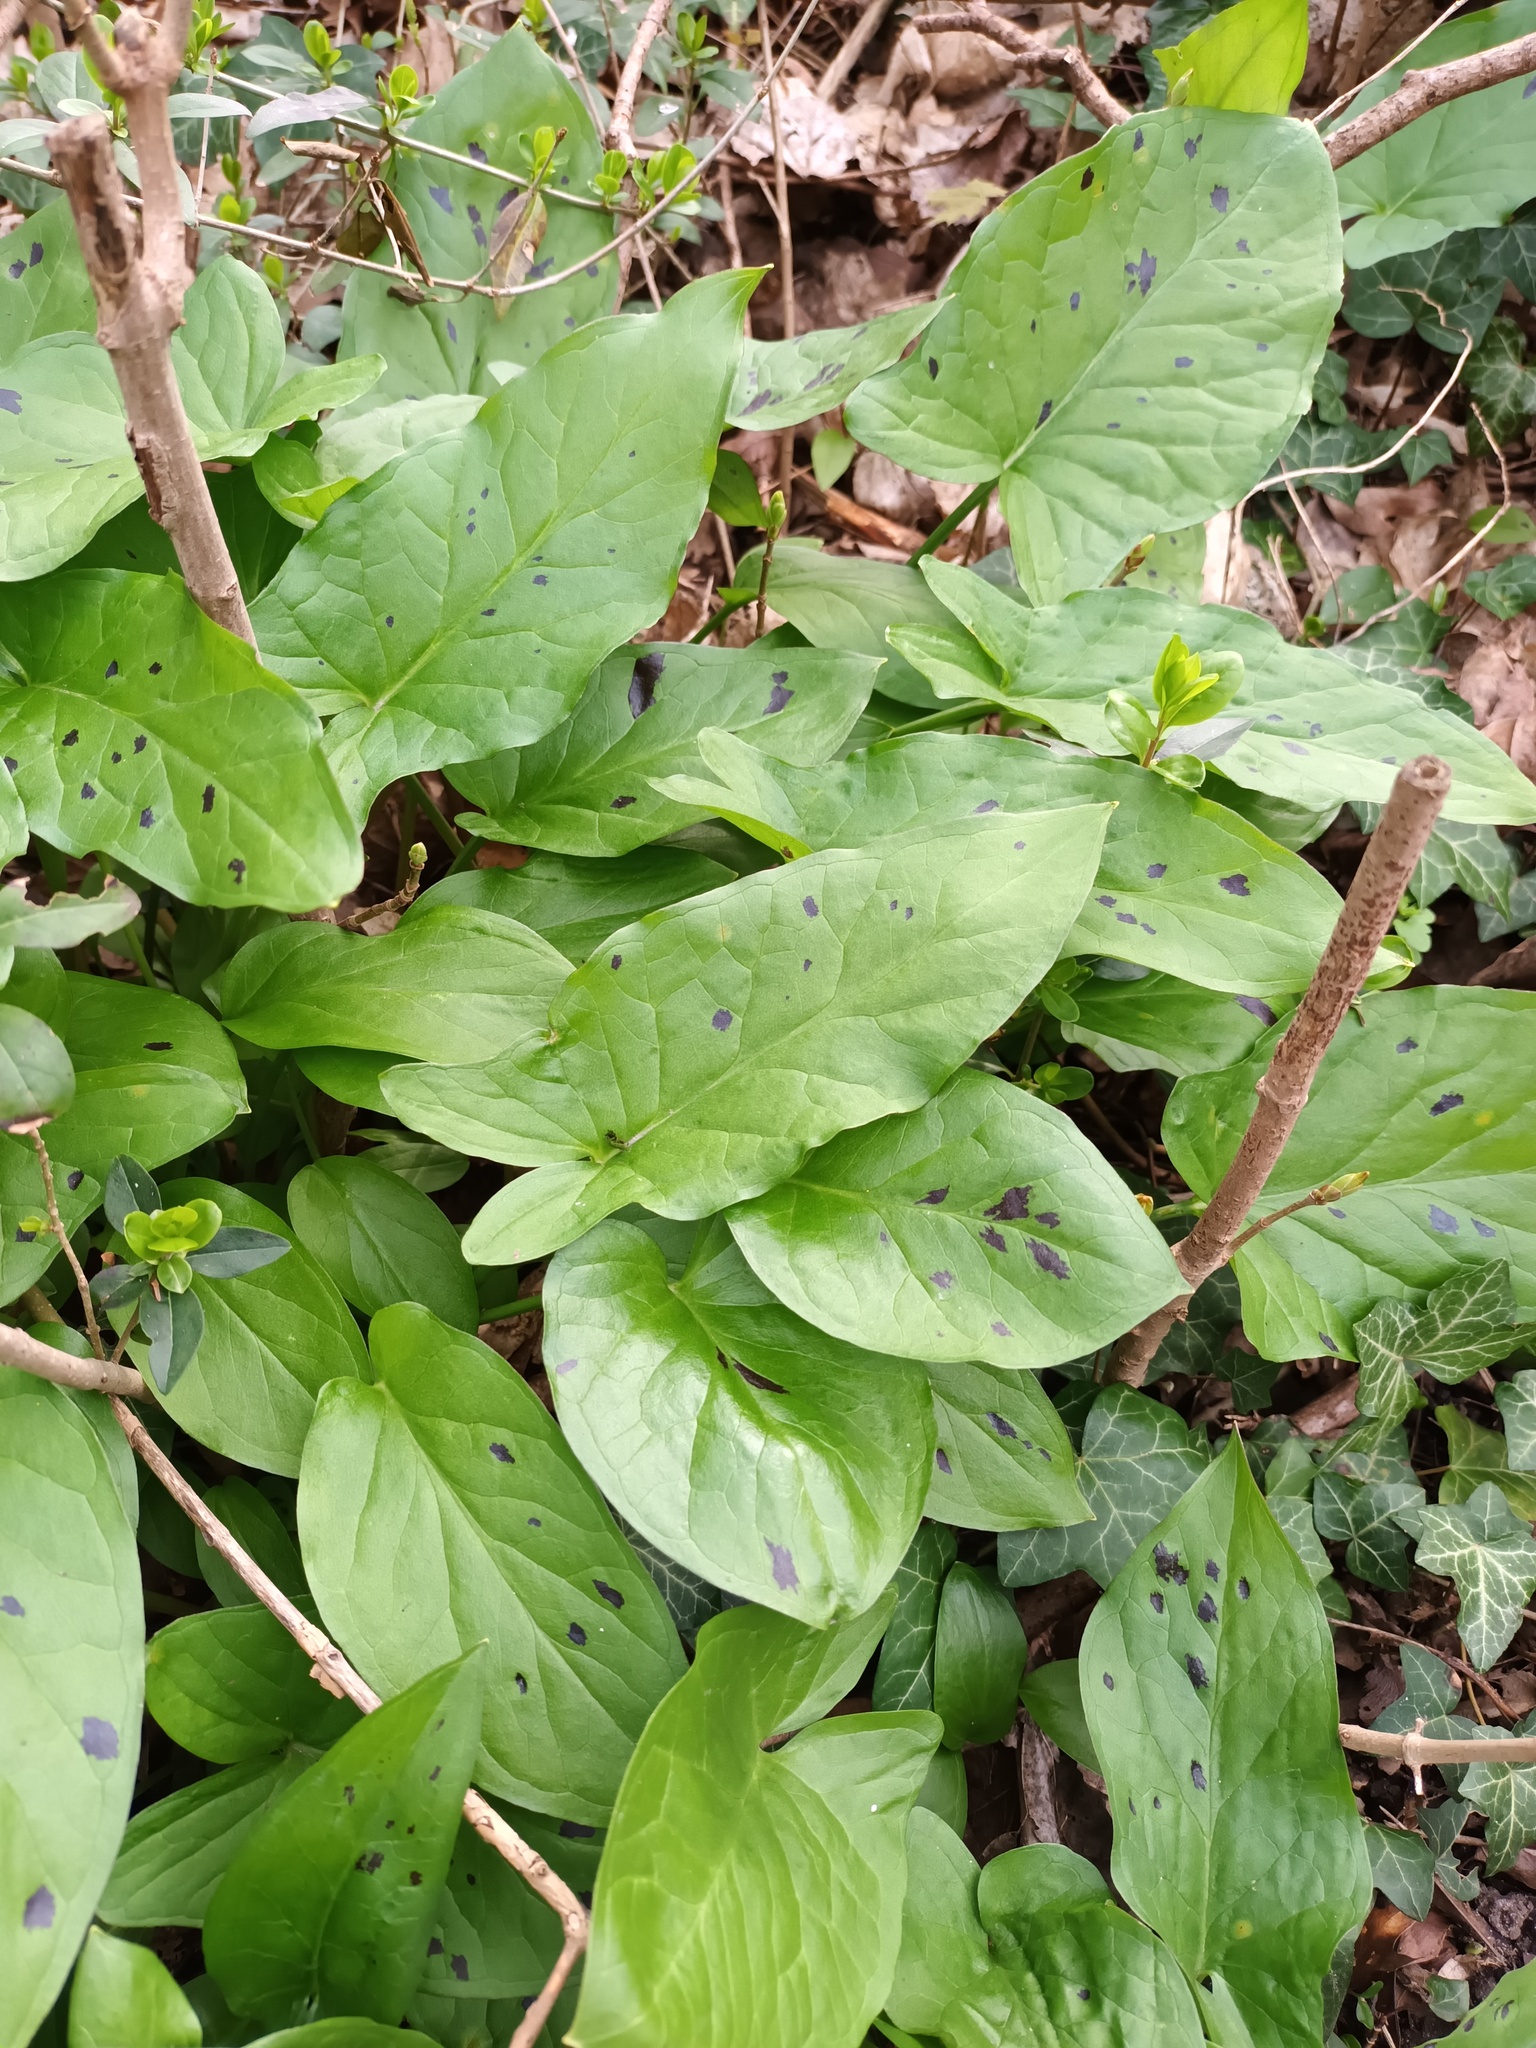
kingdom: Plantae
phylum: Tracheophyta
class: Liliopsida
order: Alismatales
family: Araceae
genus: Arum
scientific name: Arum maculatum
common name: Lords-and-ladies
